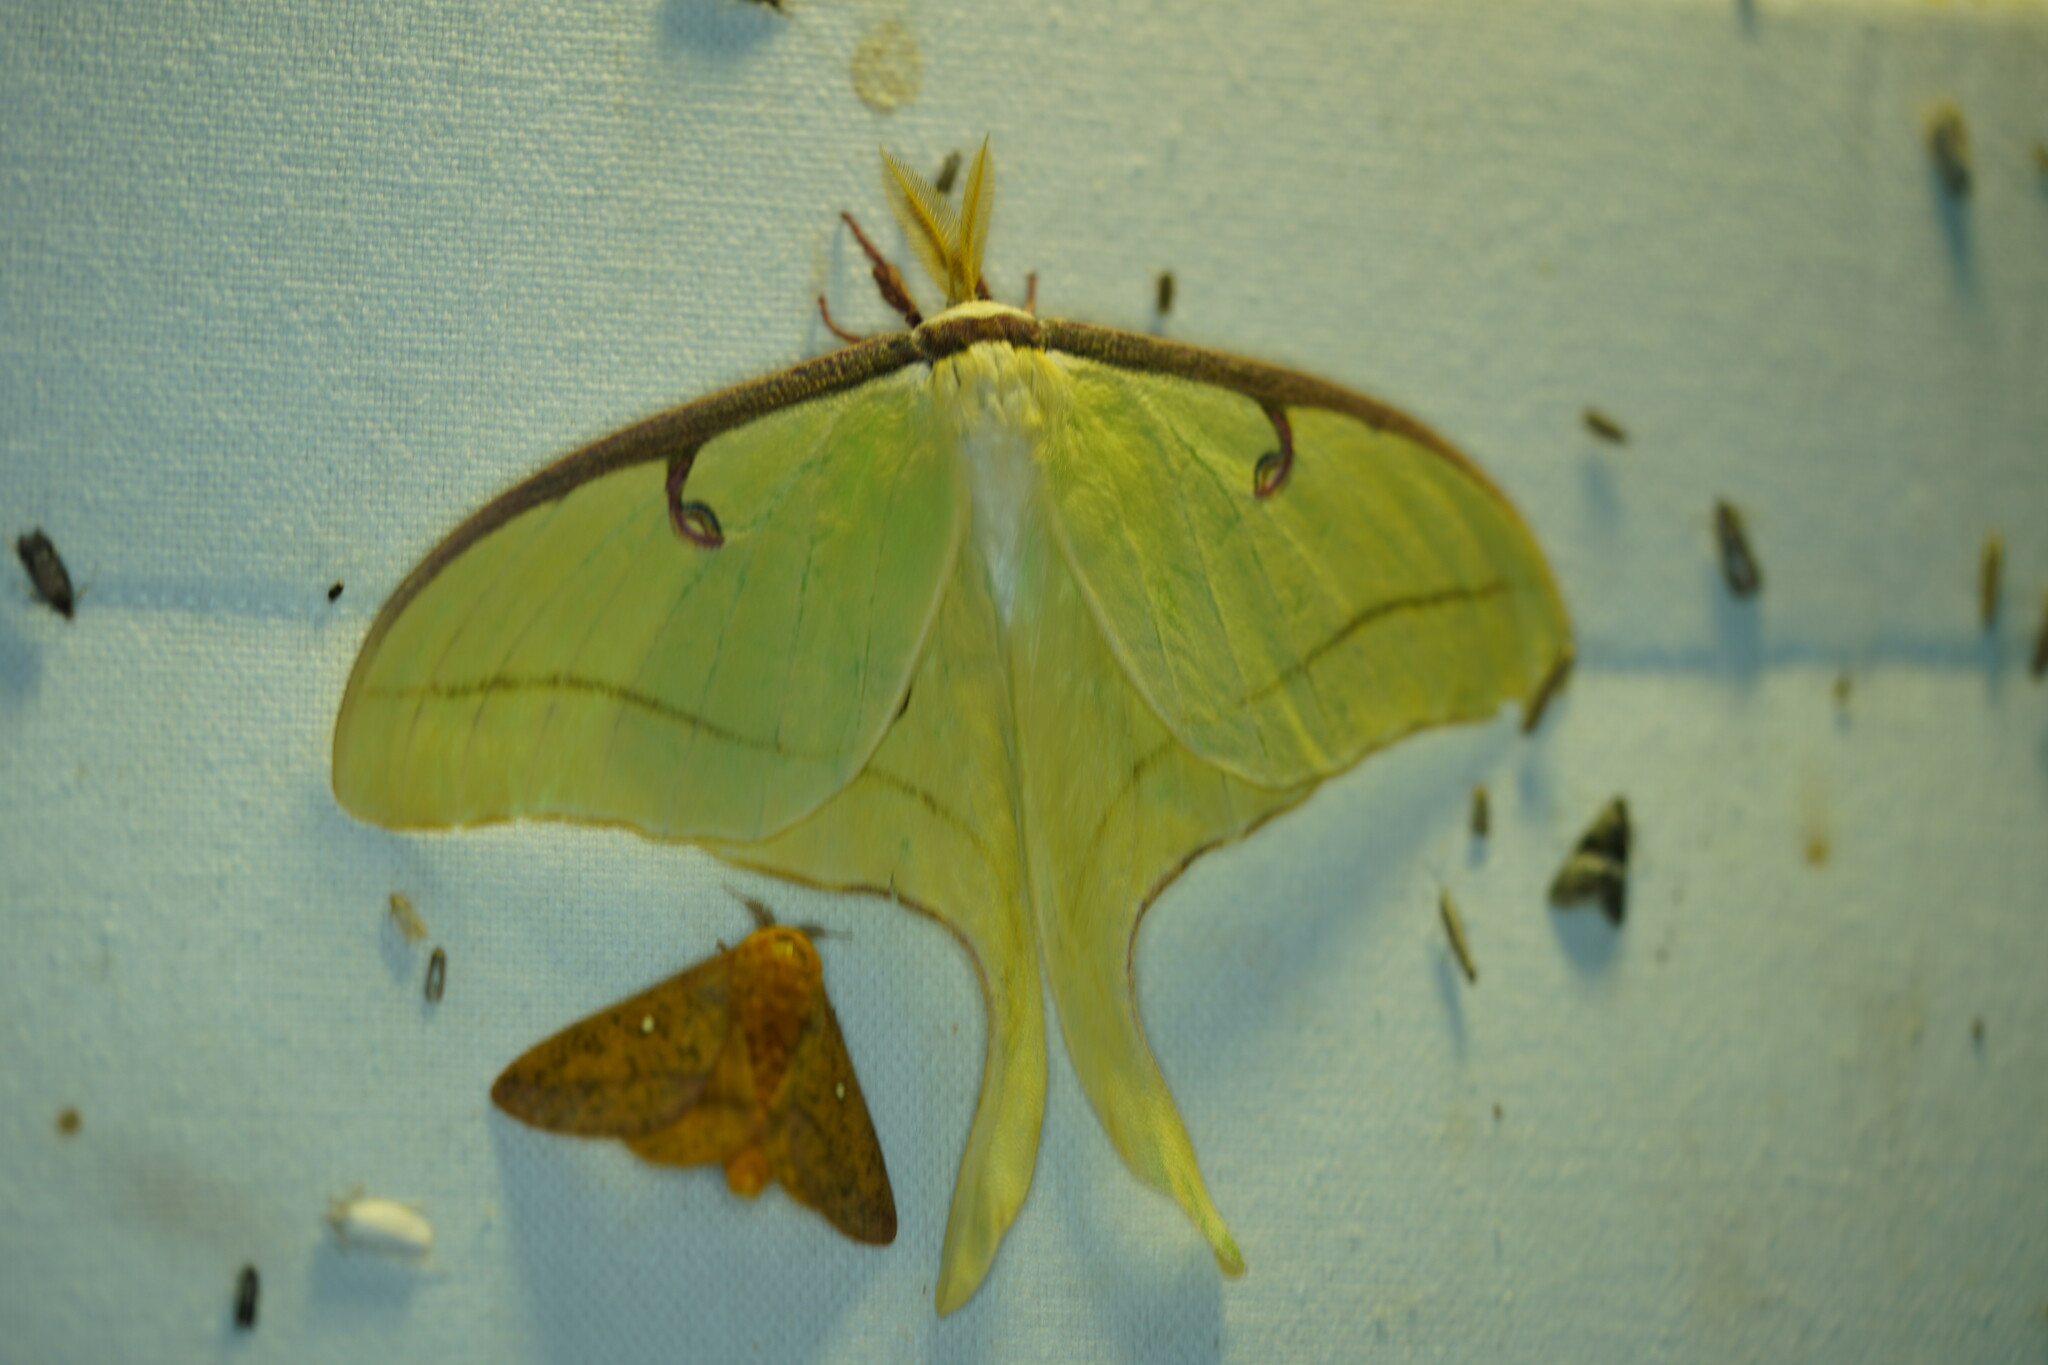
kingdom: Animalia
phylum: Arthropoda
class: Insecta
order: Lepidoptera
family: Saturniidae
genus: Actias
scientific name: Actias luna
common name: Luna moth
